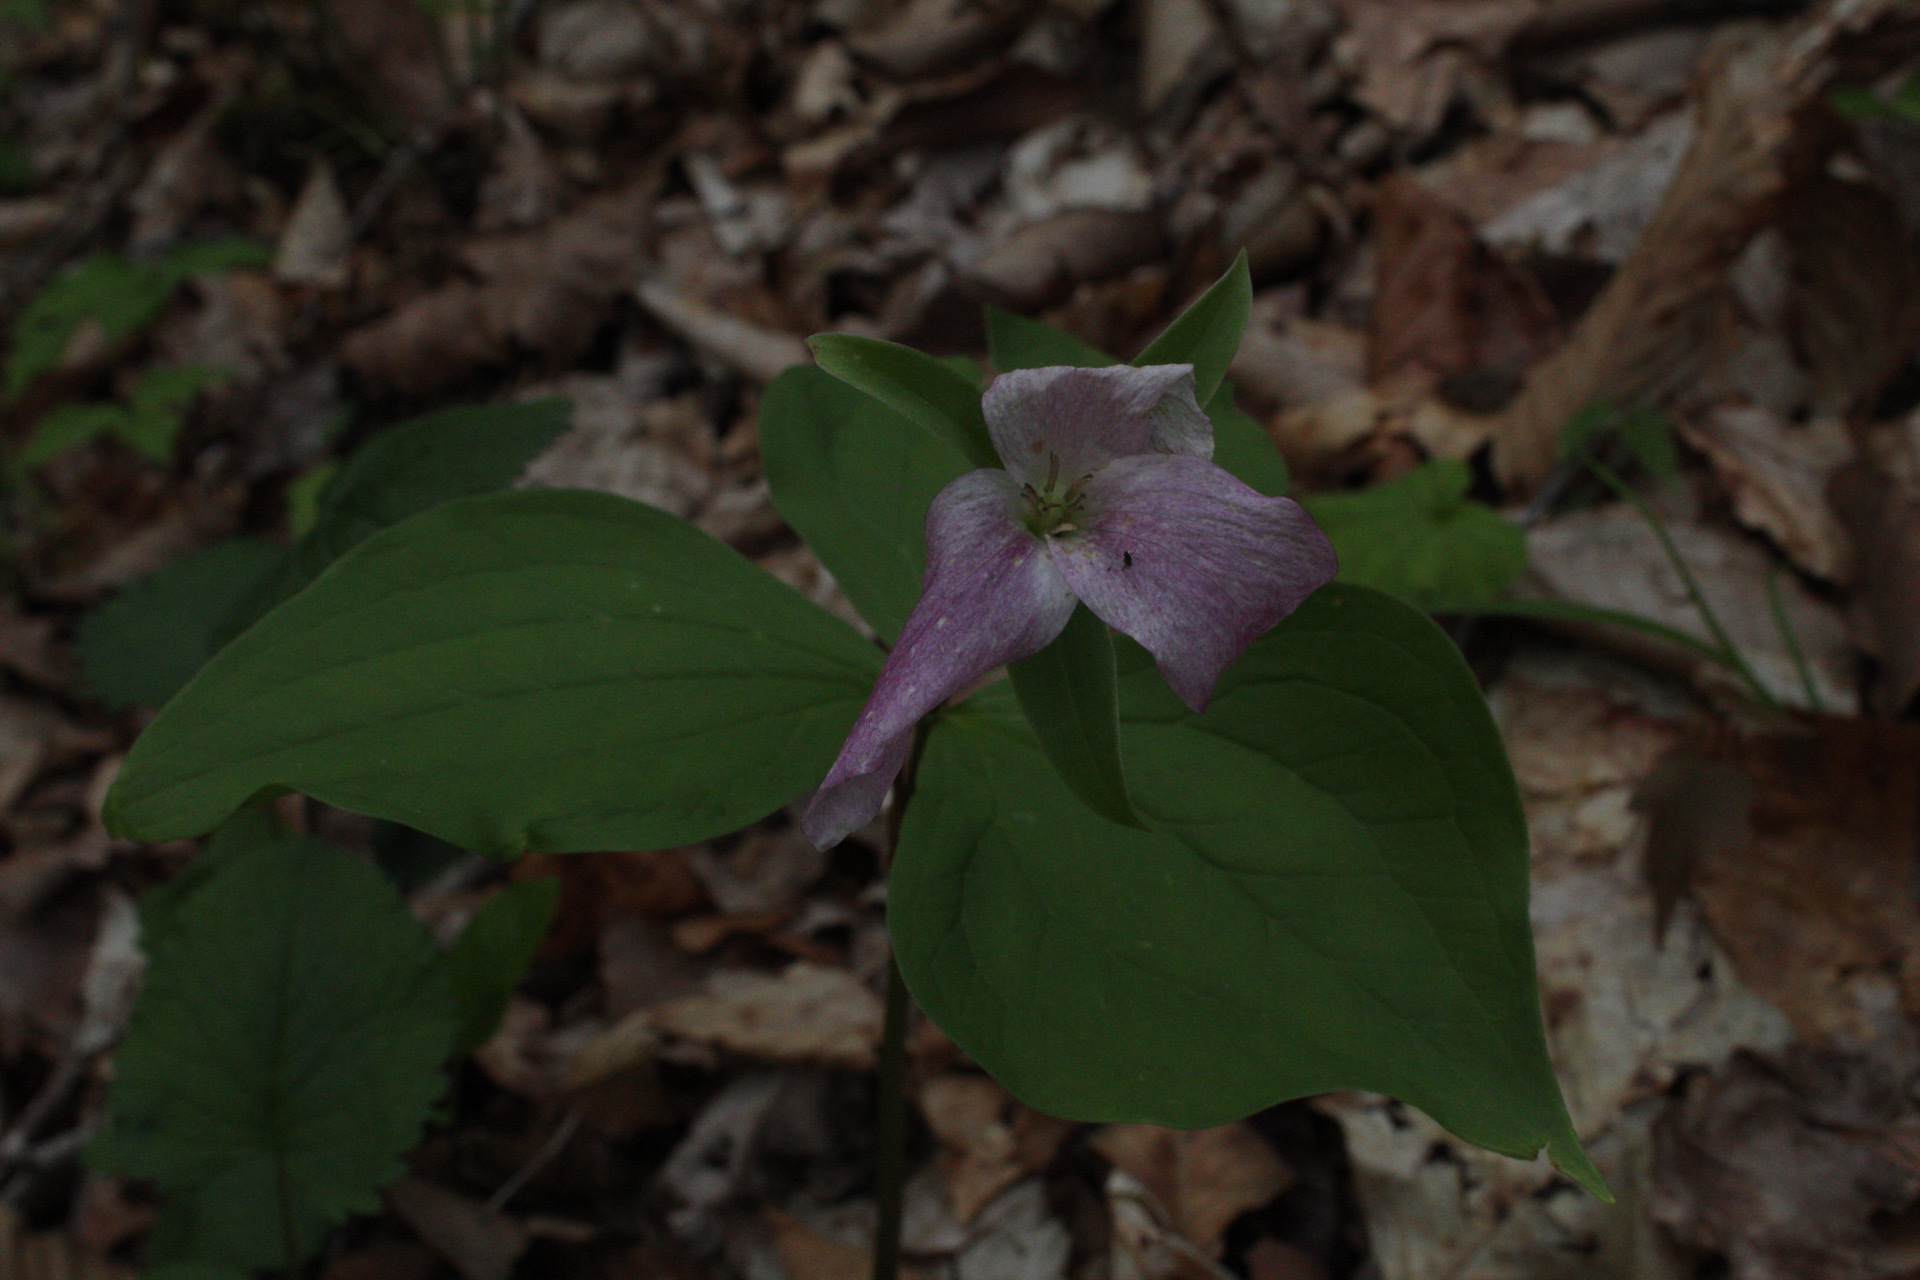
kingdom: Plantae
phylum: Tracheophyta
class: Liliopsida
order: Liliales
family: Melanthiaceae
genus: Trillium
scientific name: Trillium grandiflorum
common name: Great white trillium
